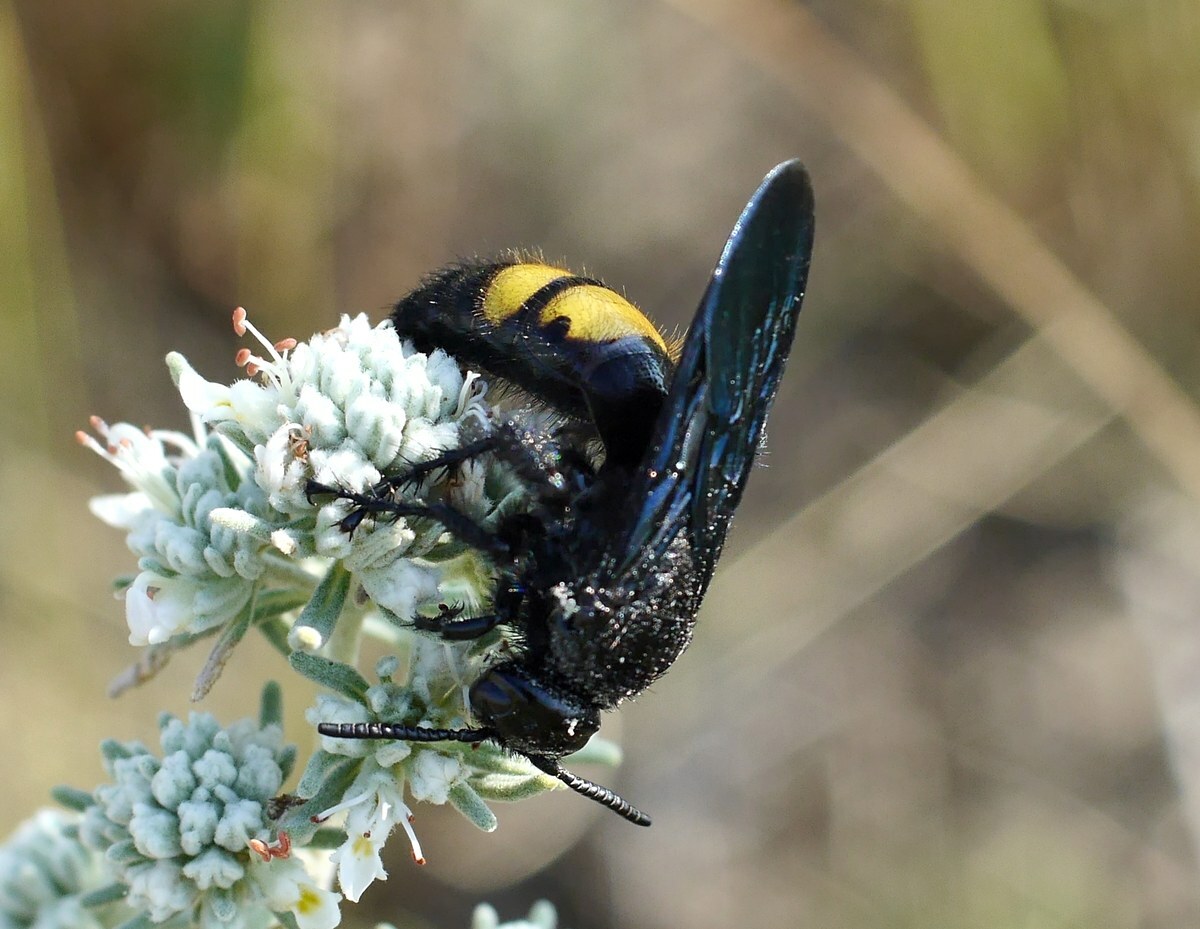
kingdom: Animalia
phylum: Arthropoda
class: Insecta
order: Hymenoptera
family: Scoliidae
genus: Scolia
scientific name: Scolia hirta
